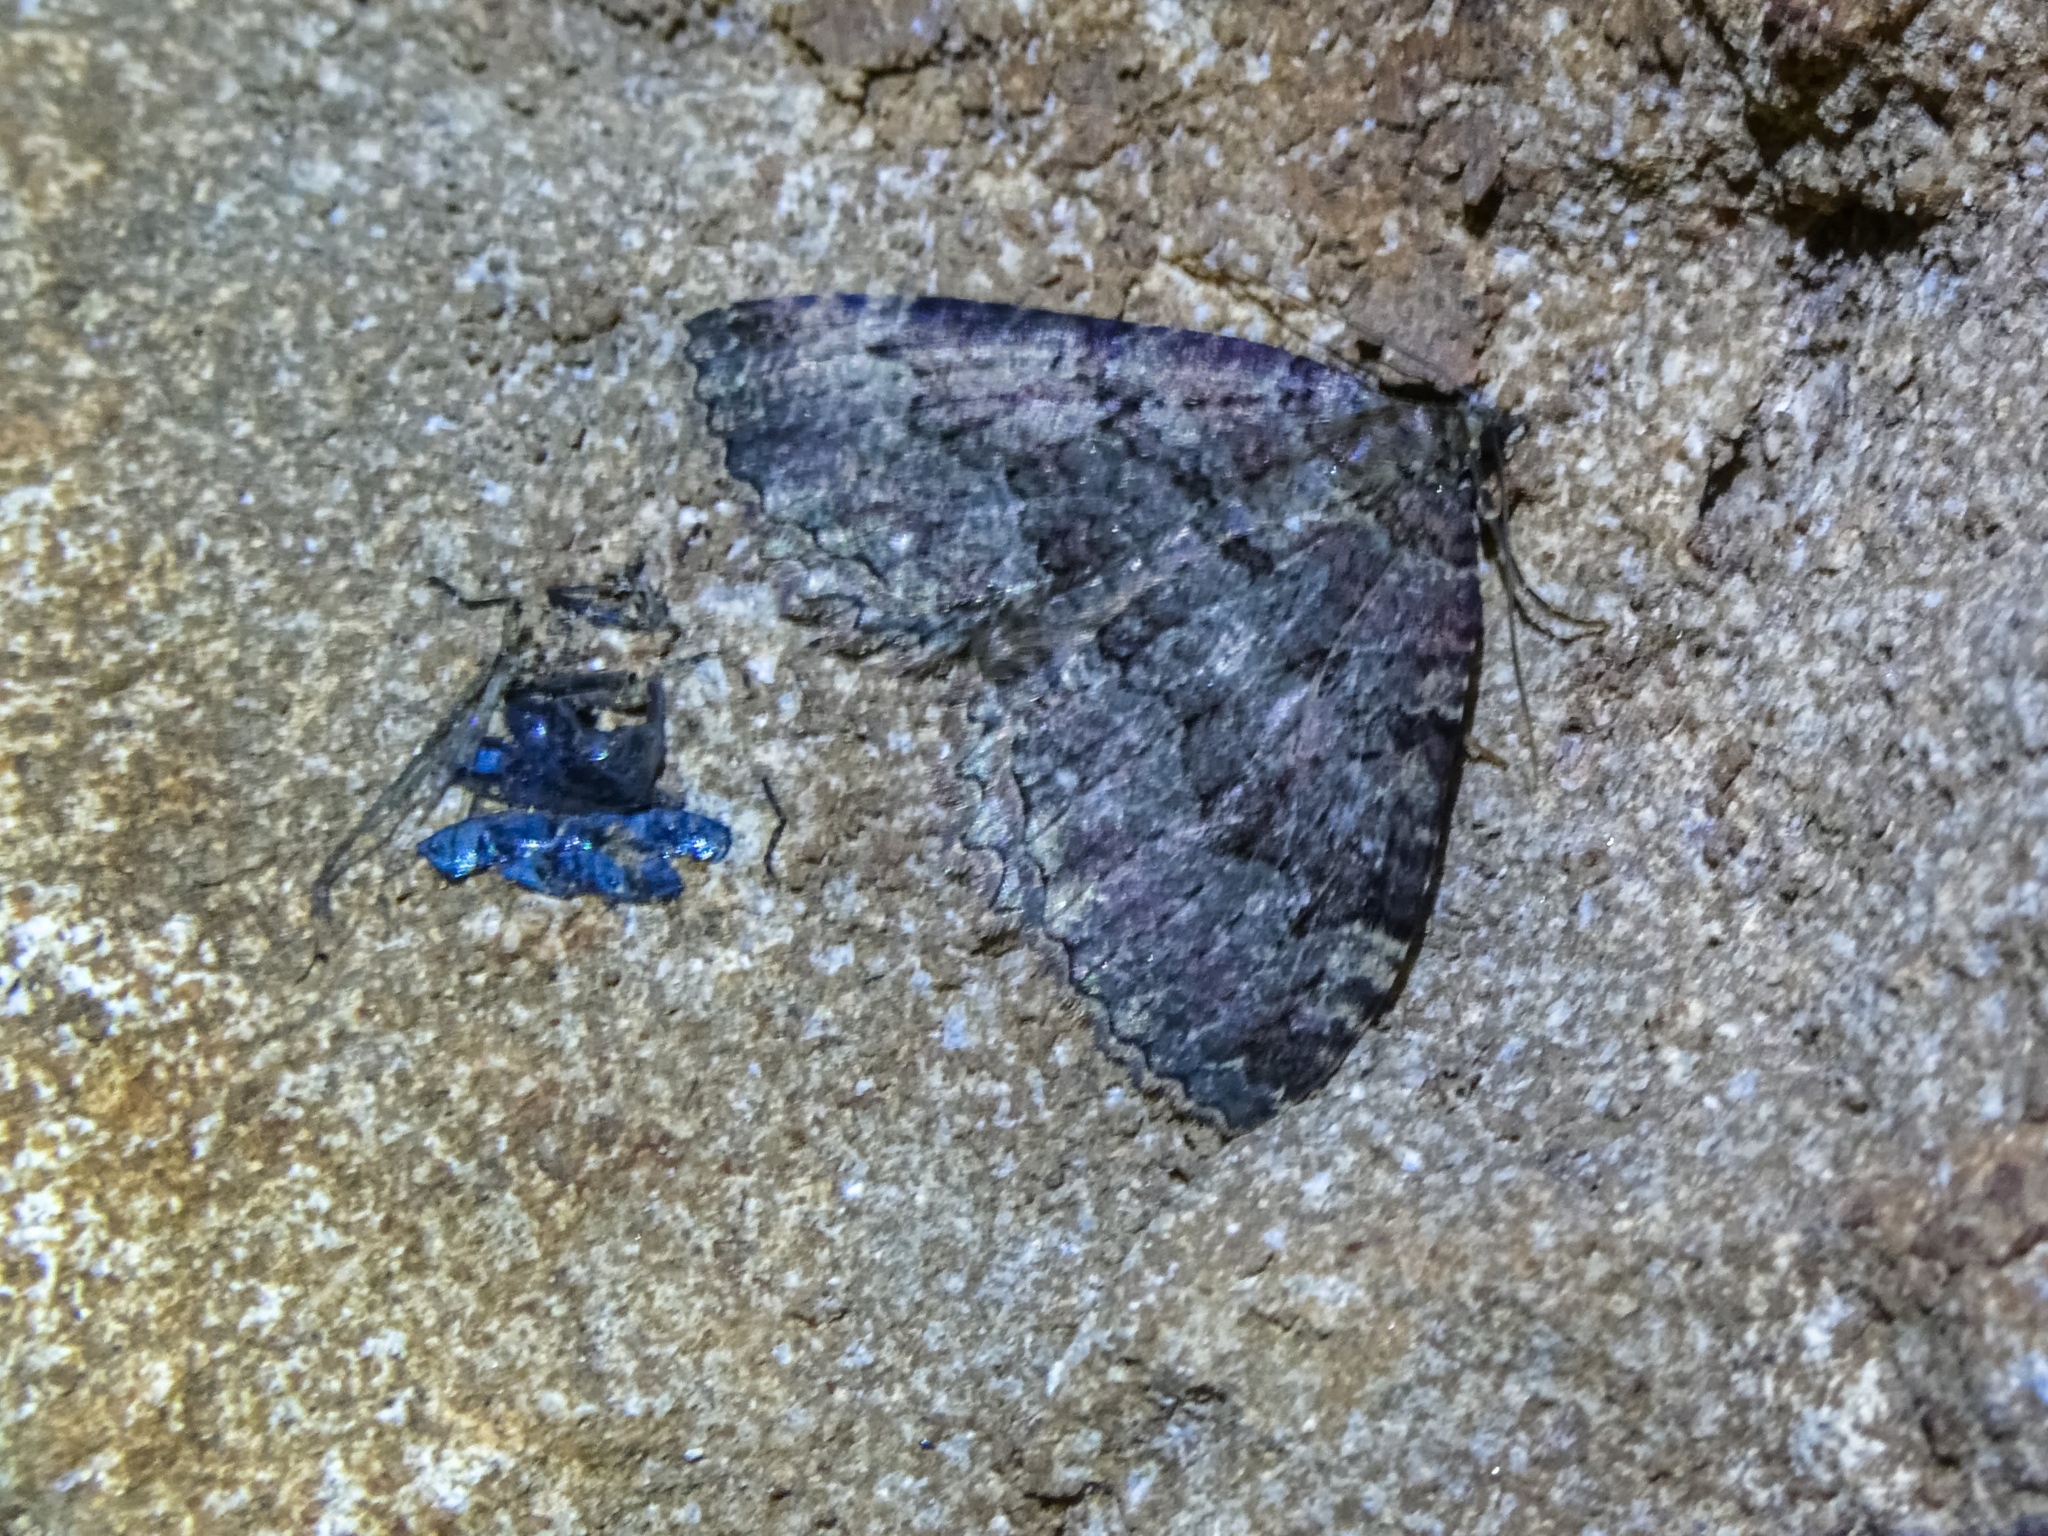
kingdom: Animalia
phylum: Arthropoda
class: Insecta
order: Lepidoptera
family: Geometridae
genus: Triphosa
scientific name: Triphosa dubitata
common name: Tissue
